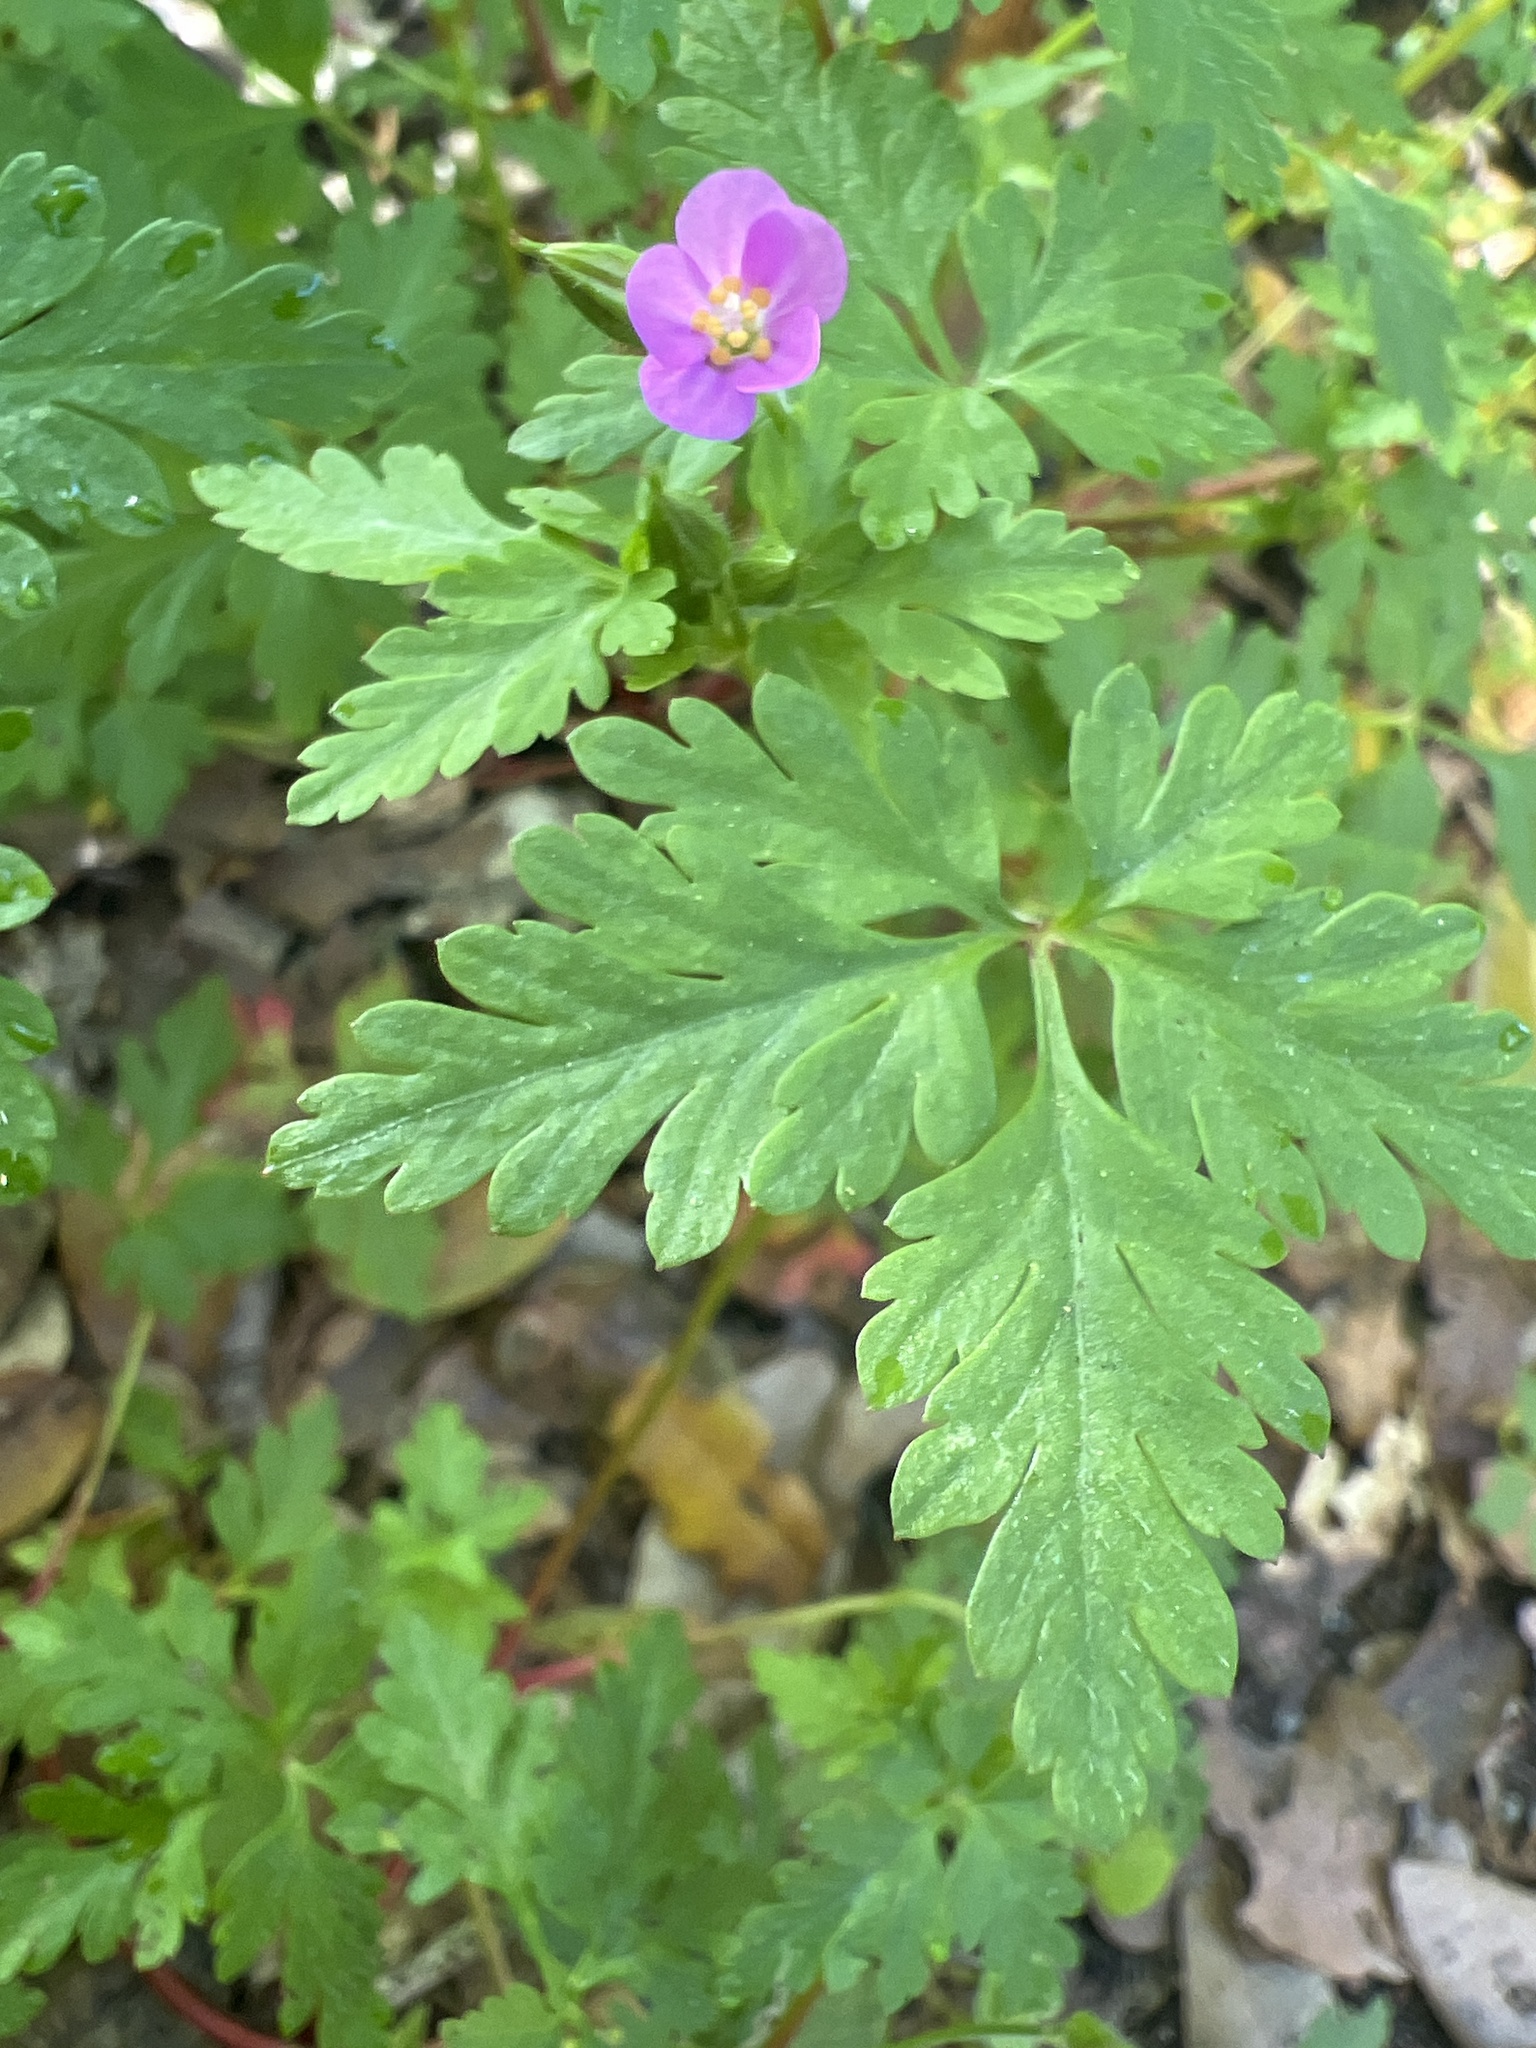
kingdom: Plantae
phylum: Tracheophyta
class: Magnoliopsida
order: Geraniales
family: Geraniaceae
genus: Geranium
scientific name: Geranium purpureum
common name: Little-robin
